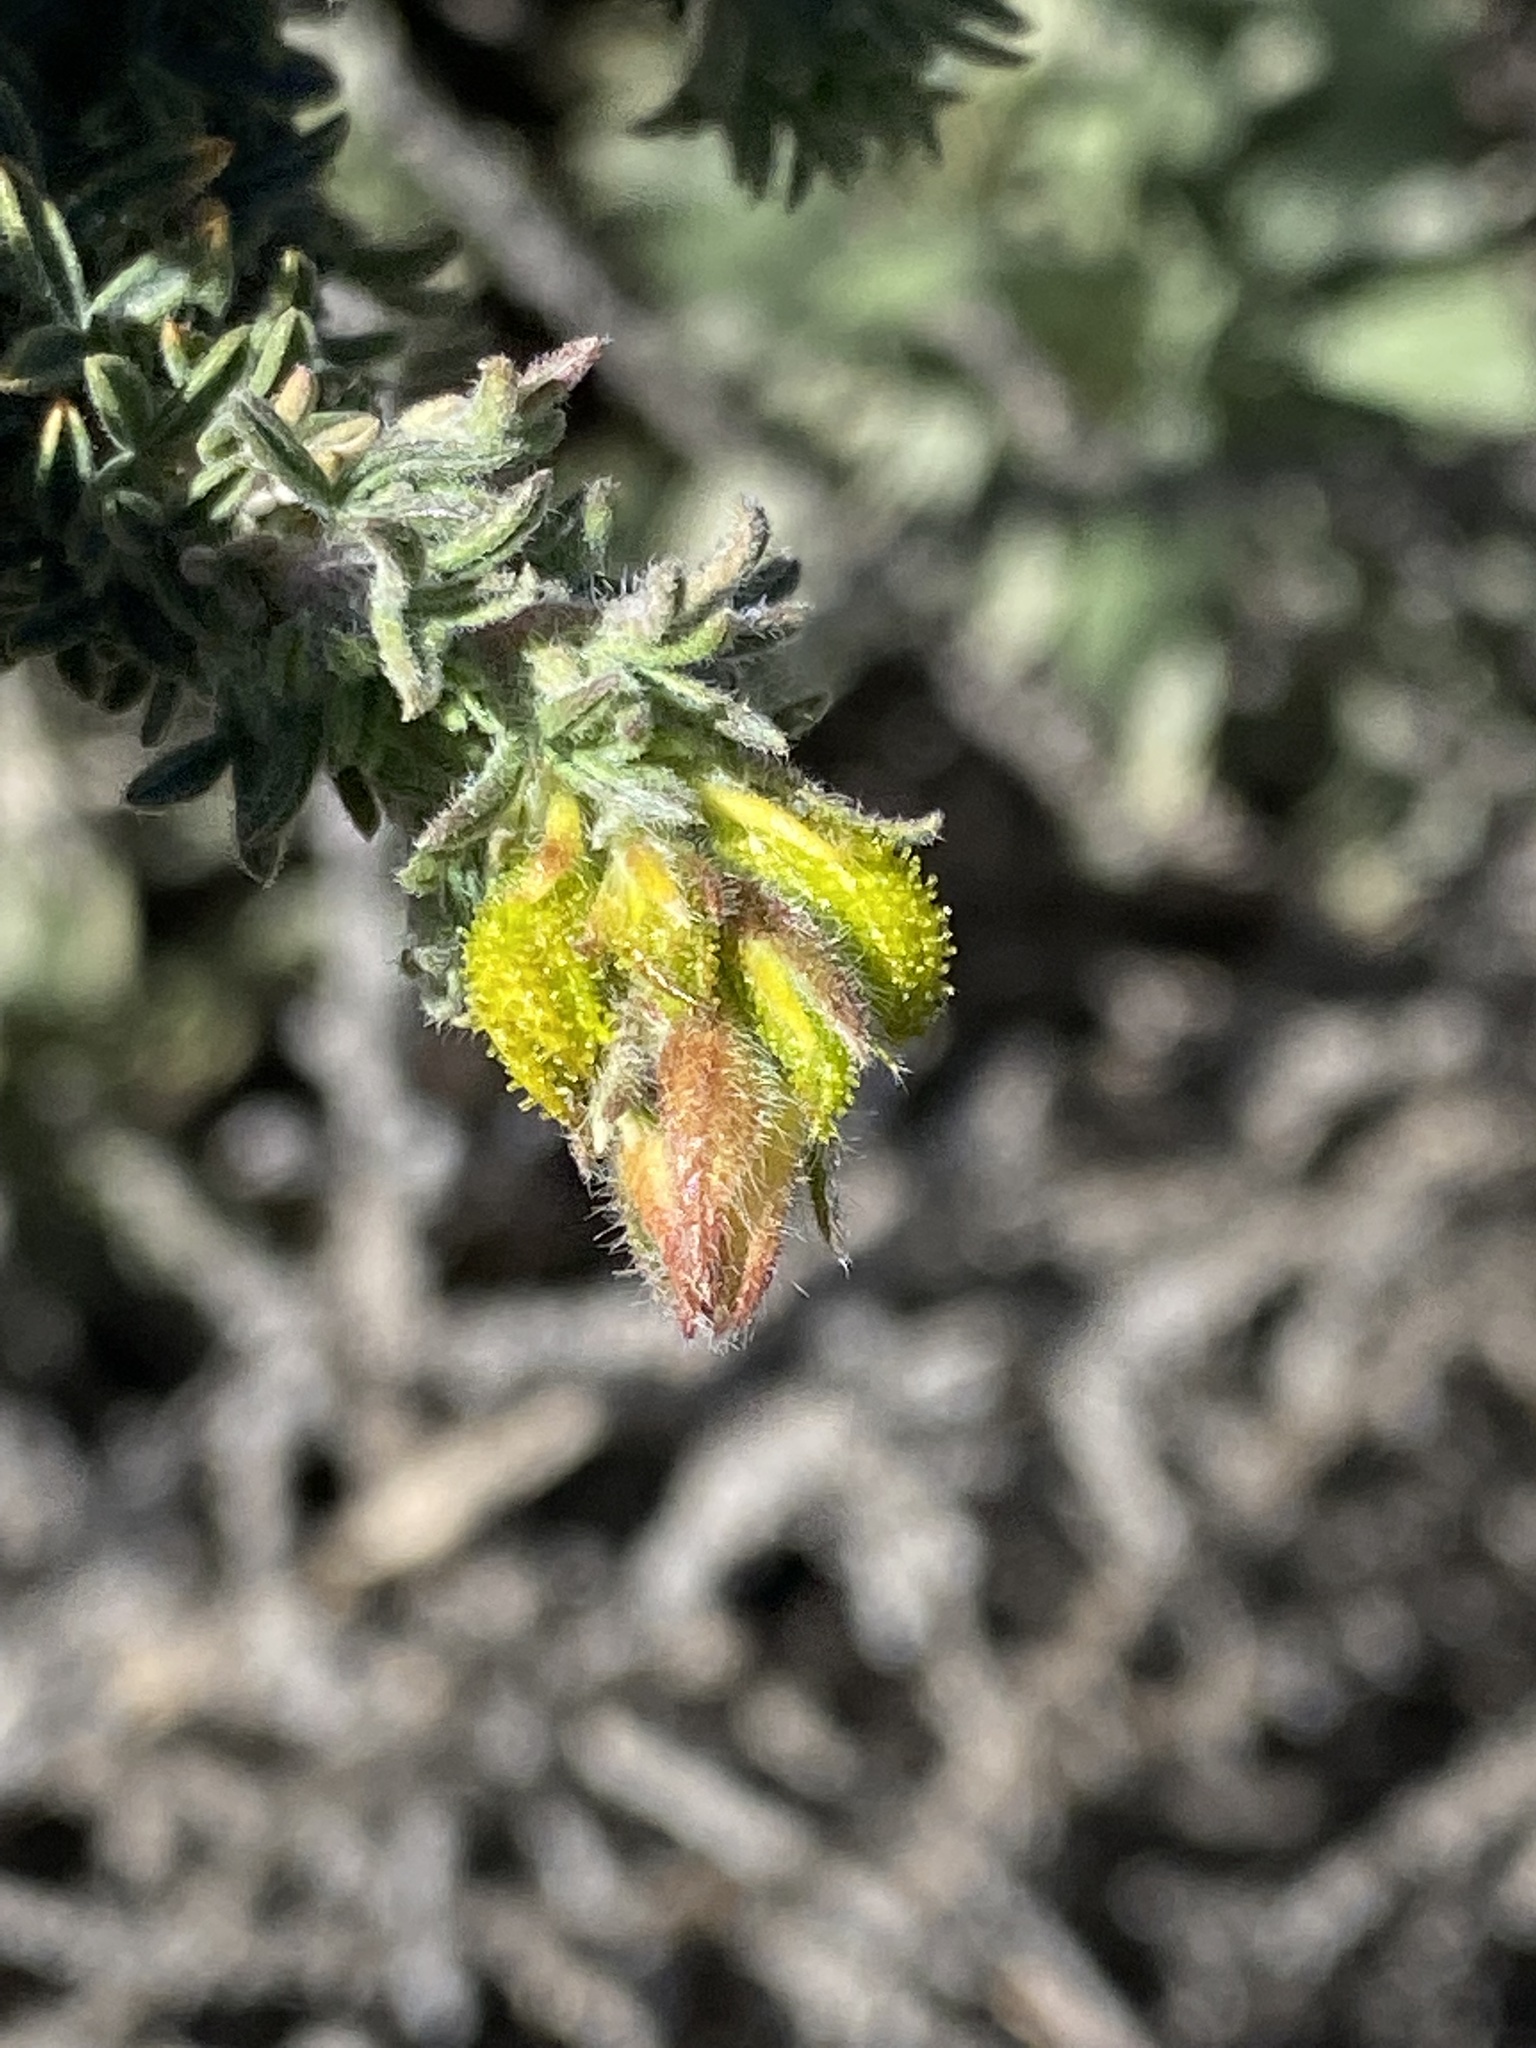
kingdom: Plantae
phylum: Tracheophyta
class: Magnoliopsida
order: Fabales
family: Fabaceae
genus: Adenocarpus
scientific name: Adenocarpus viscosus
